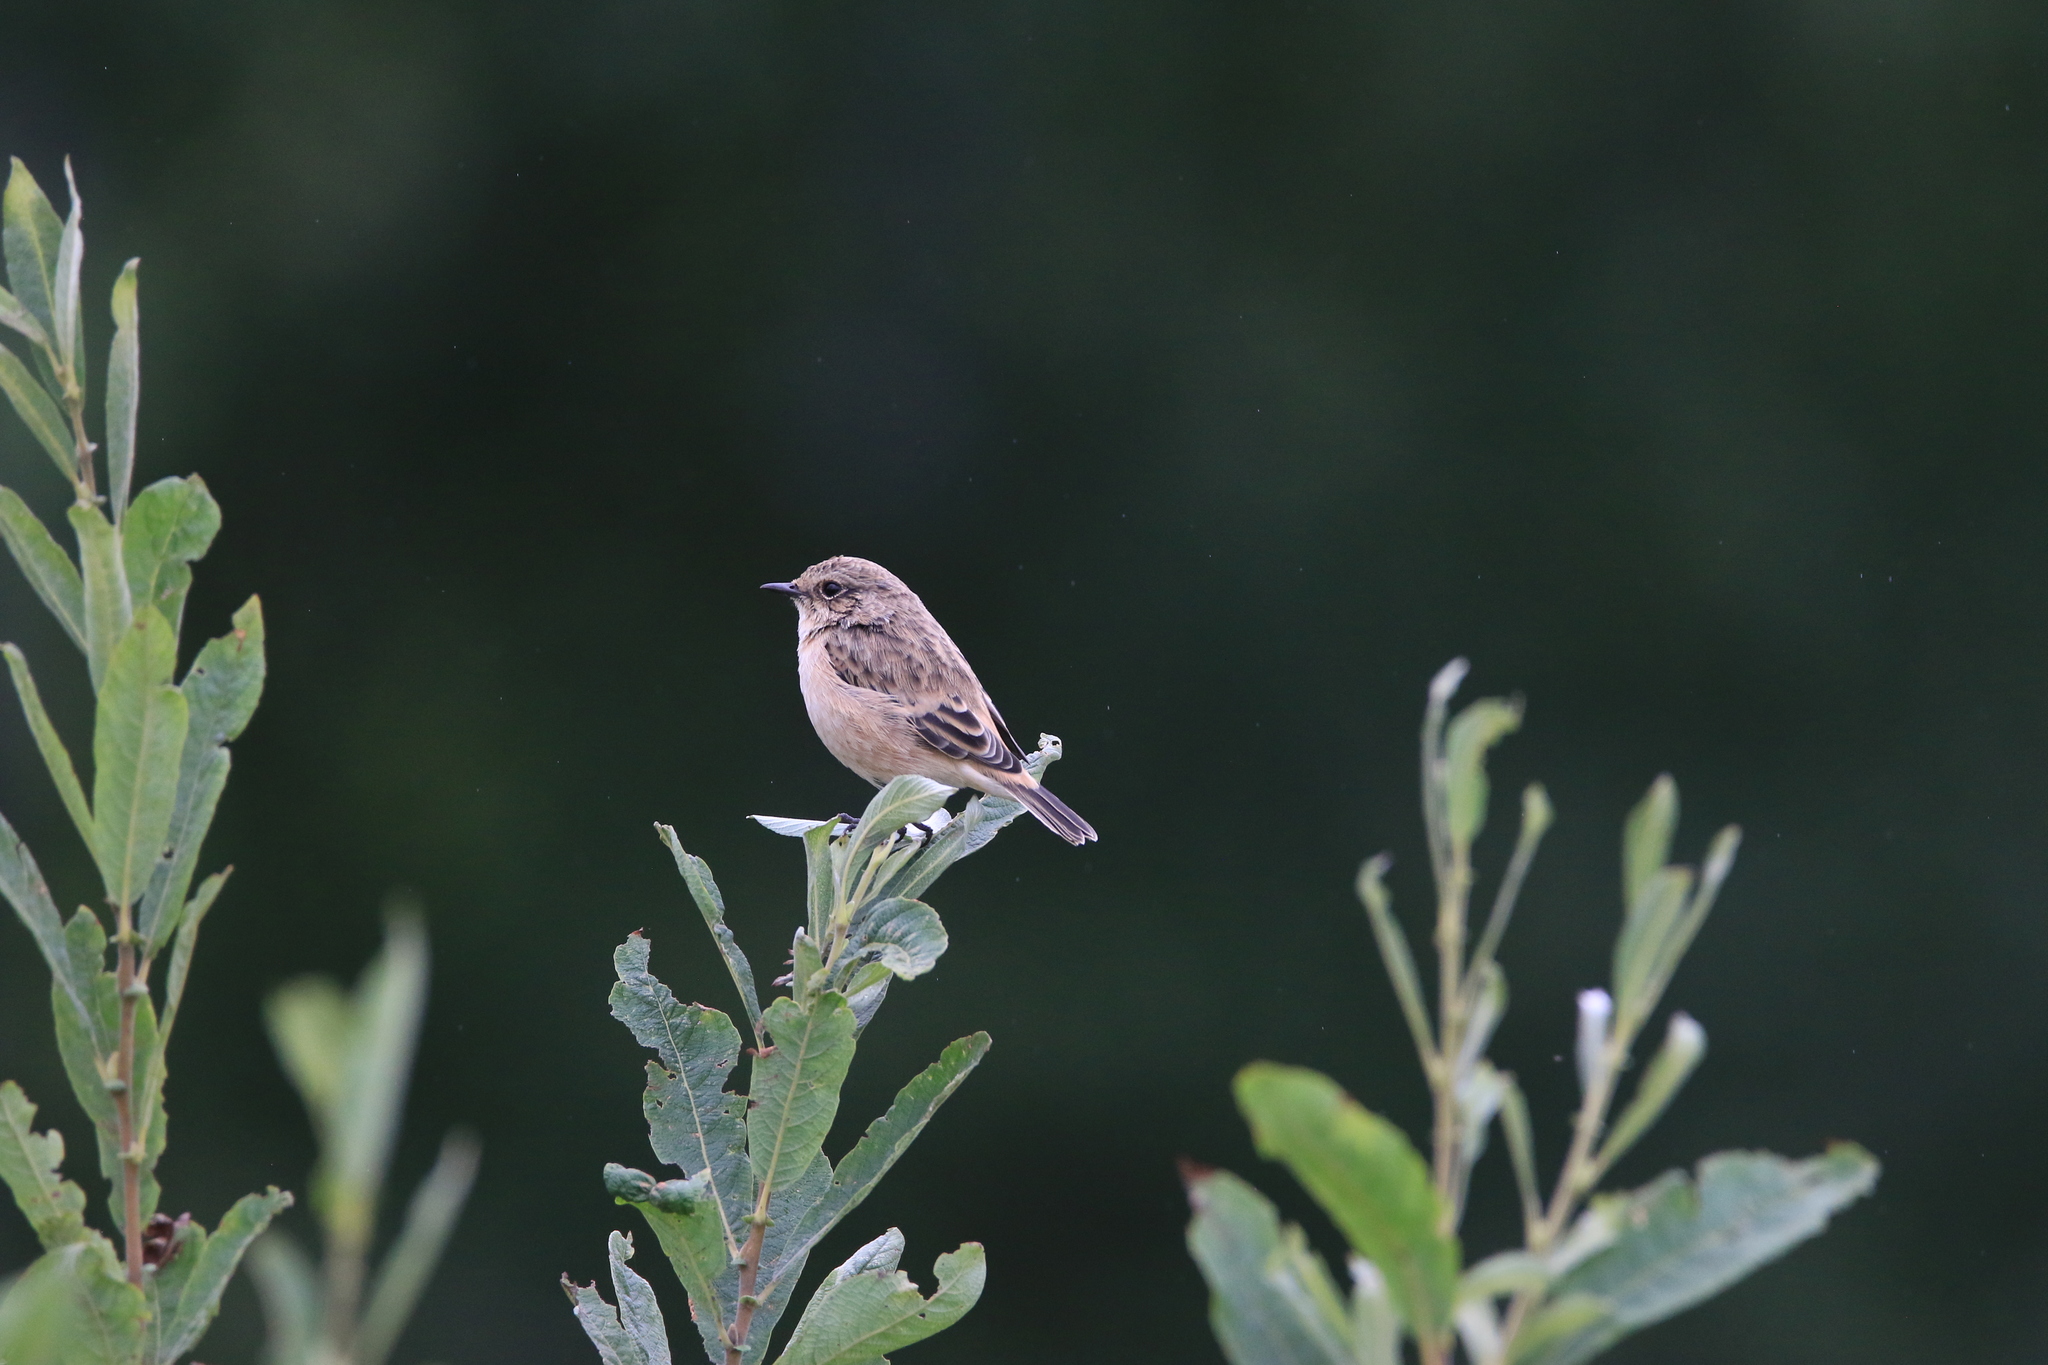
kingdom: Animalia
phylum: Chordata
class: Aves
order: Passeriformes
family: Muscicapidae
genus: Saxicola
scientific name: Saxicola maurus
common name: Siberian stonechat
